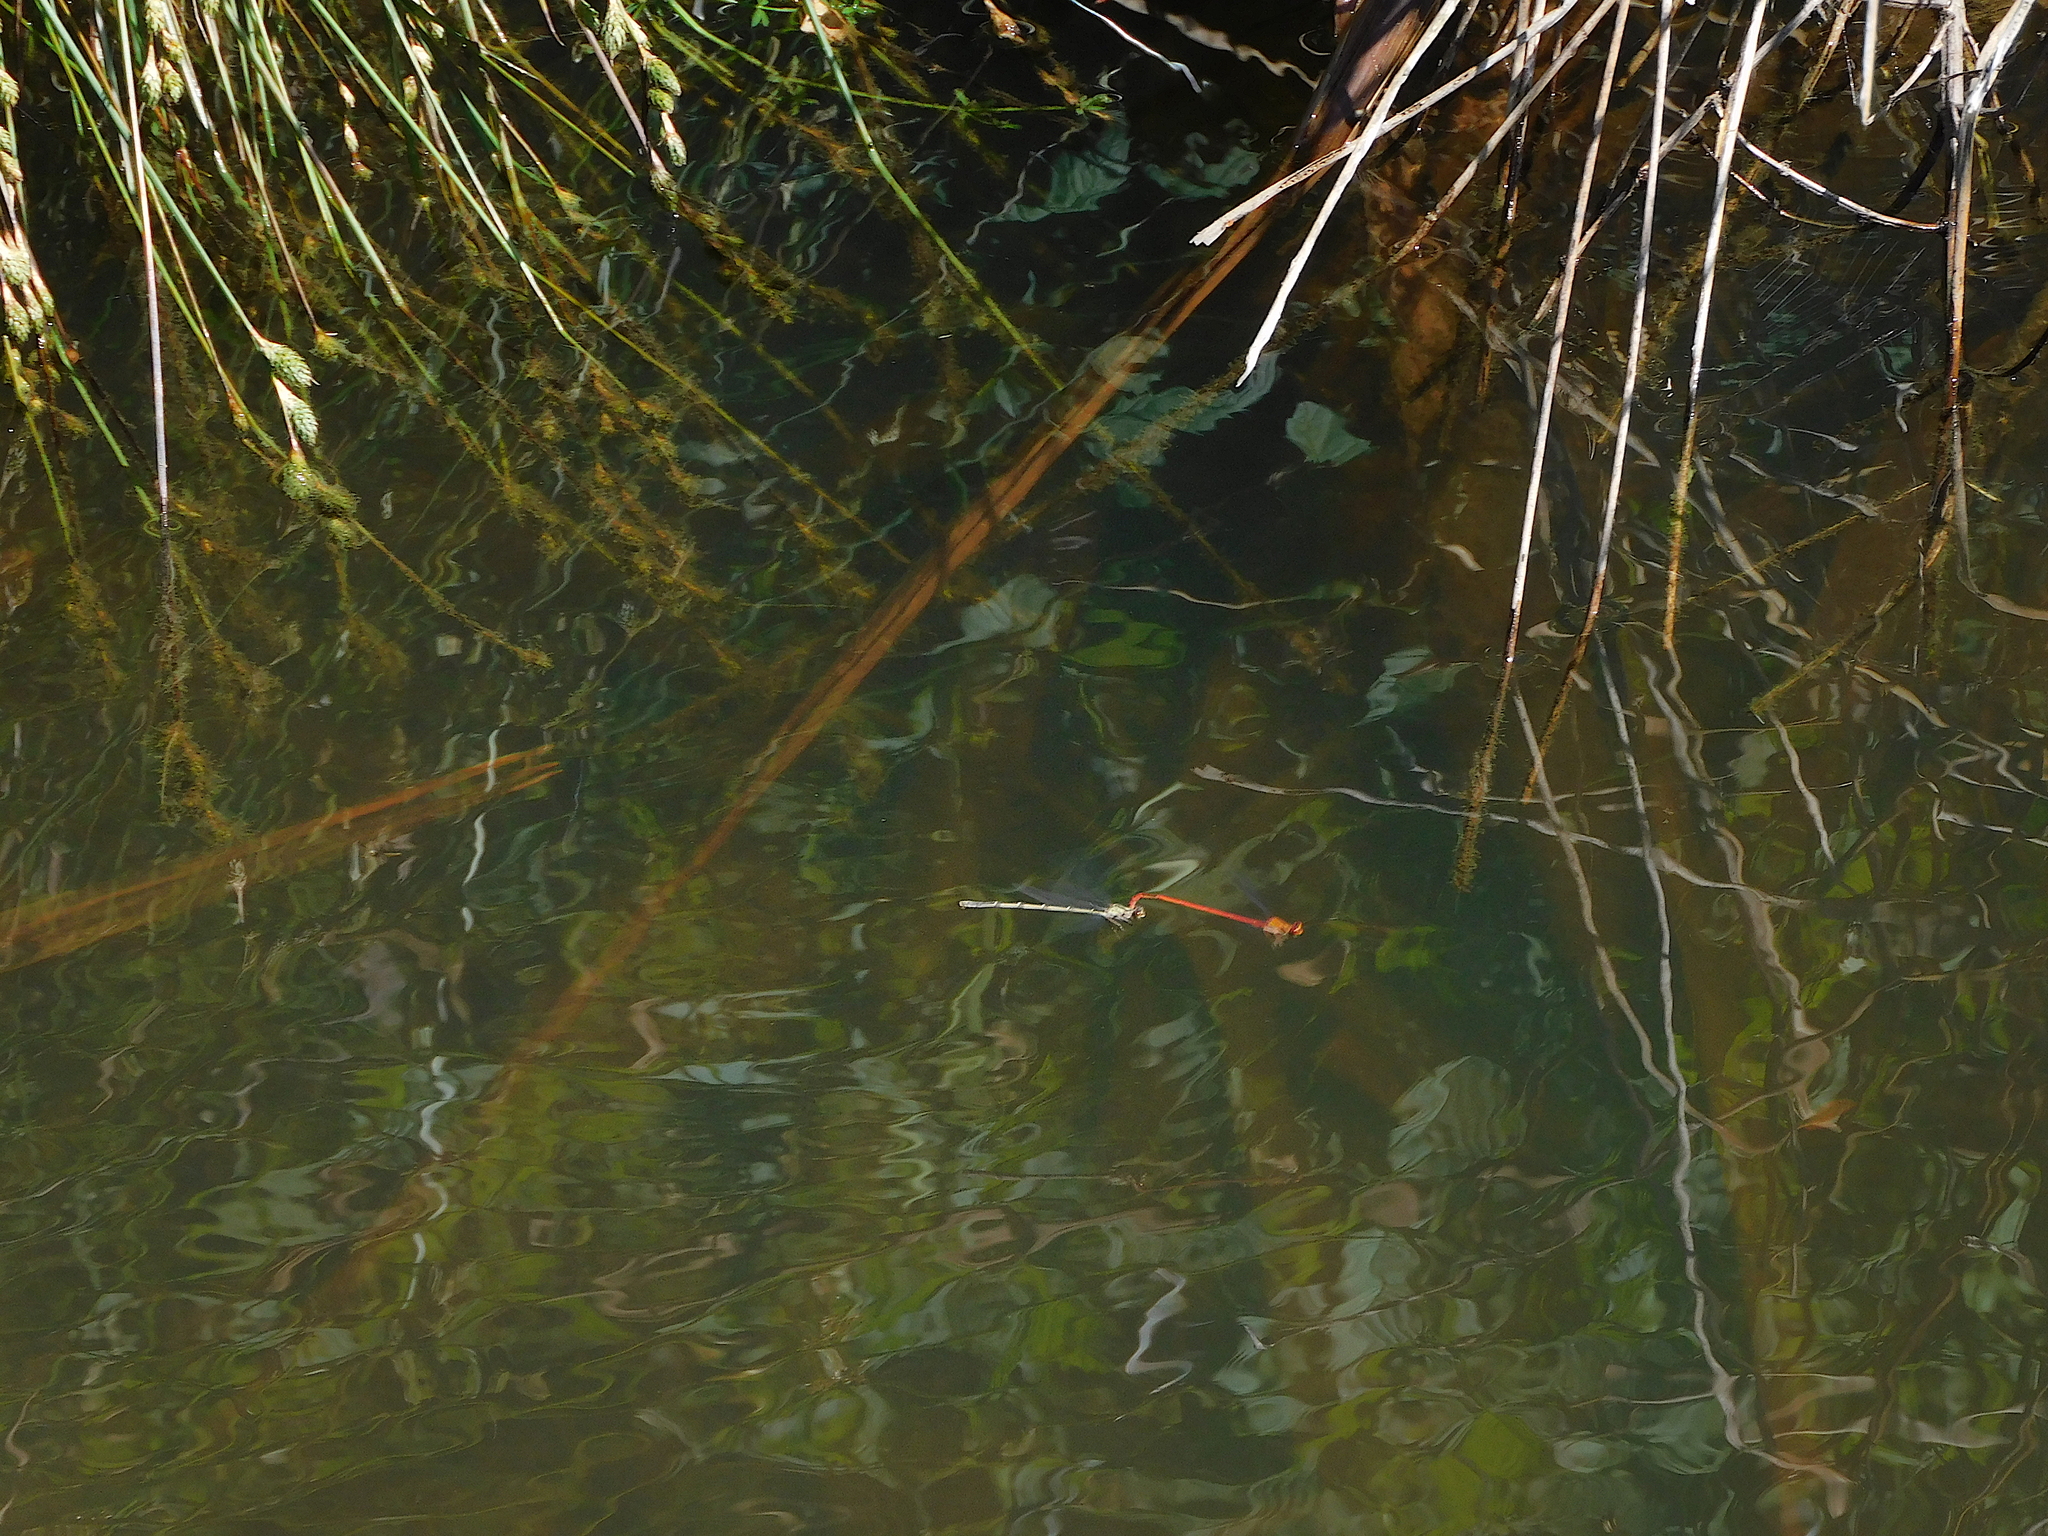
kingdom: Animalia
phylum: Arthropoda
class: Insecta
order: Odonata
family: Coenagrionidae
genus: Xanthocnemis
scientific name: Xanthocnemis zealandica
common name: Common redcoat damselfly
